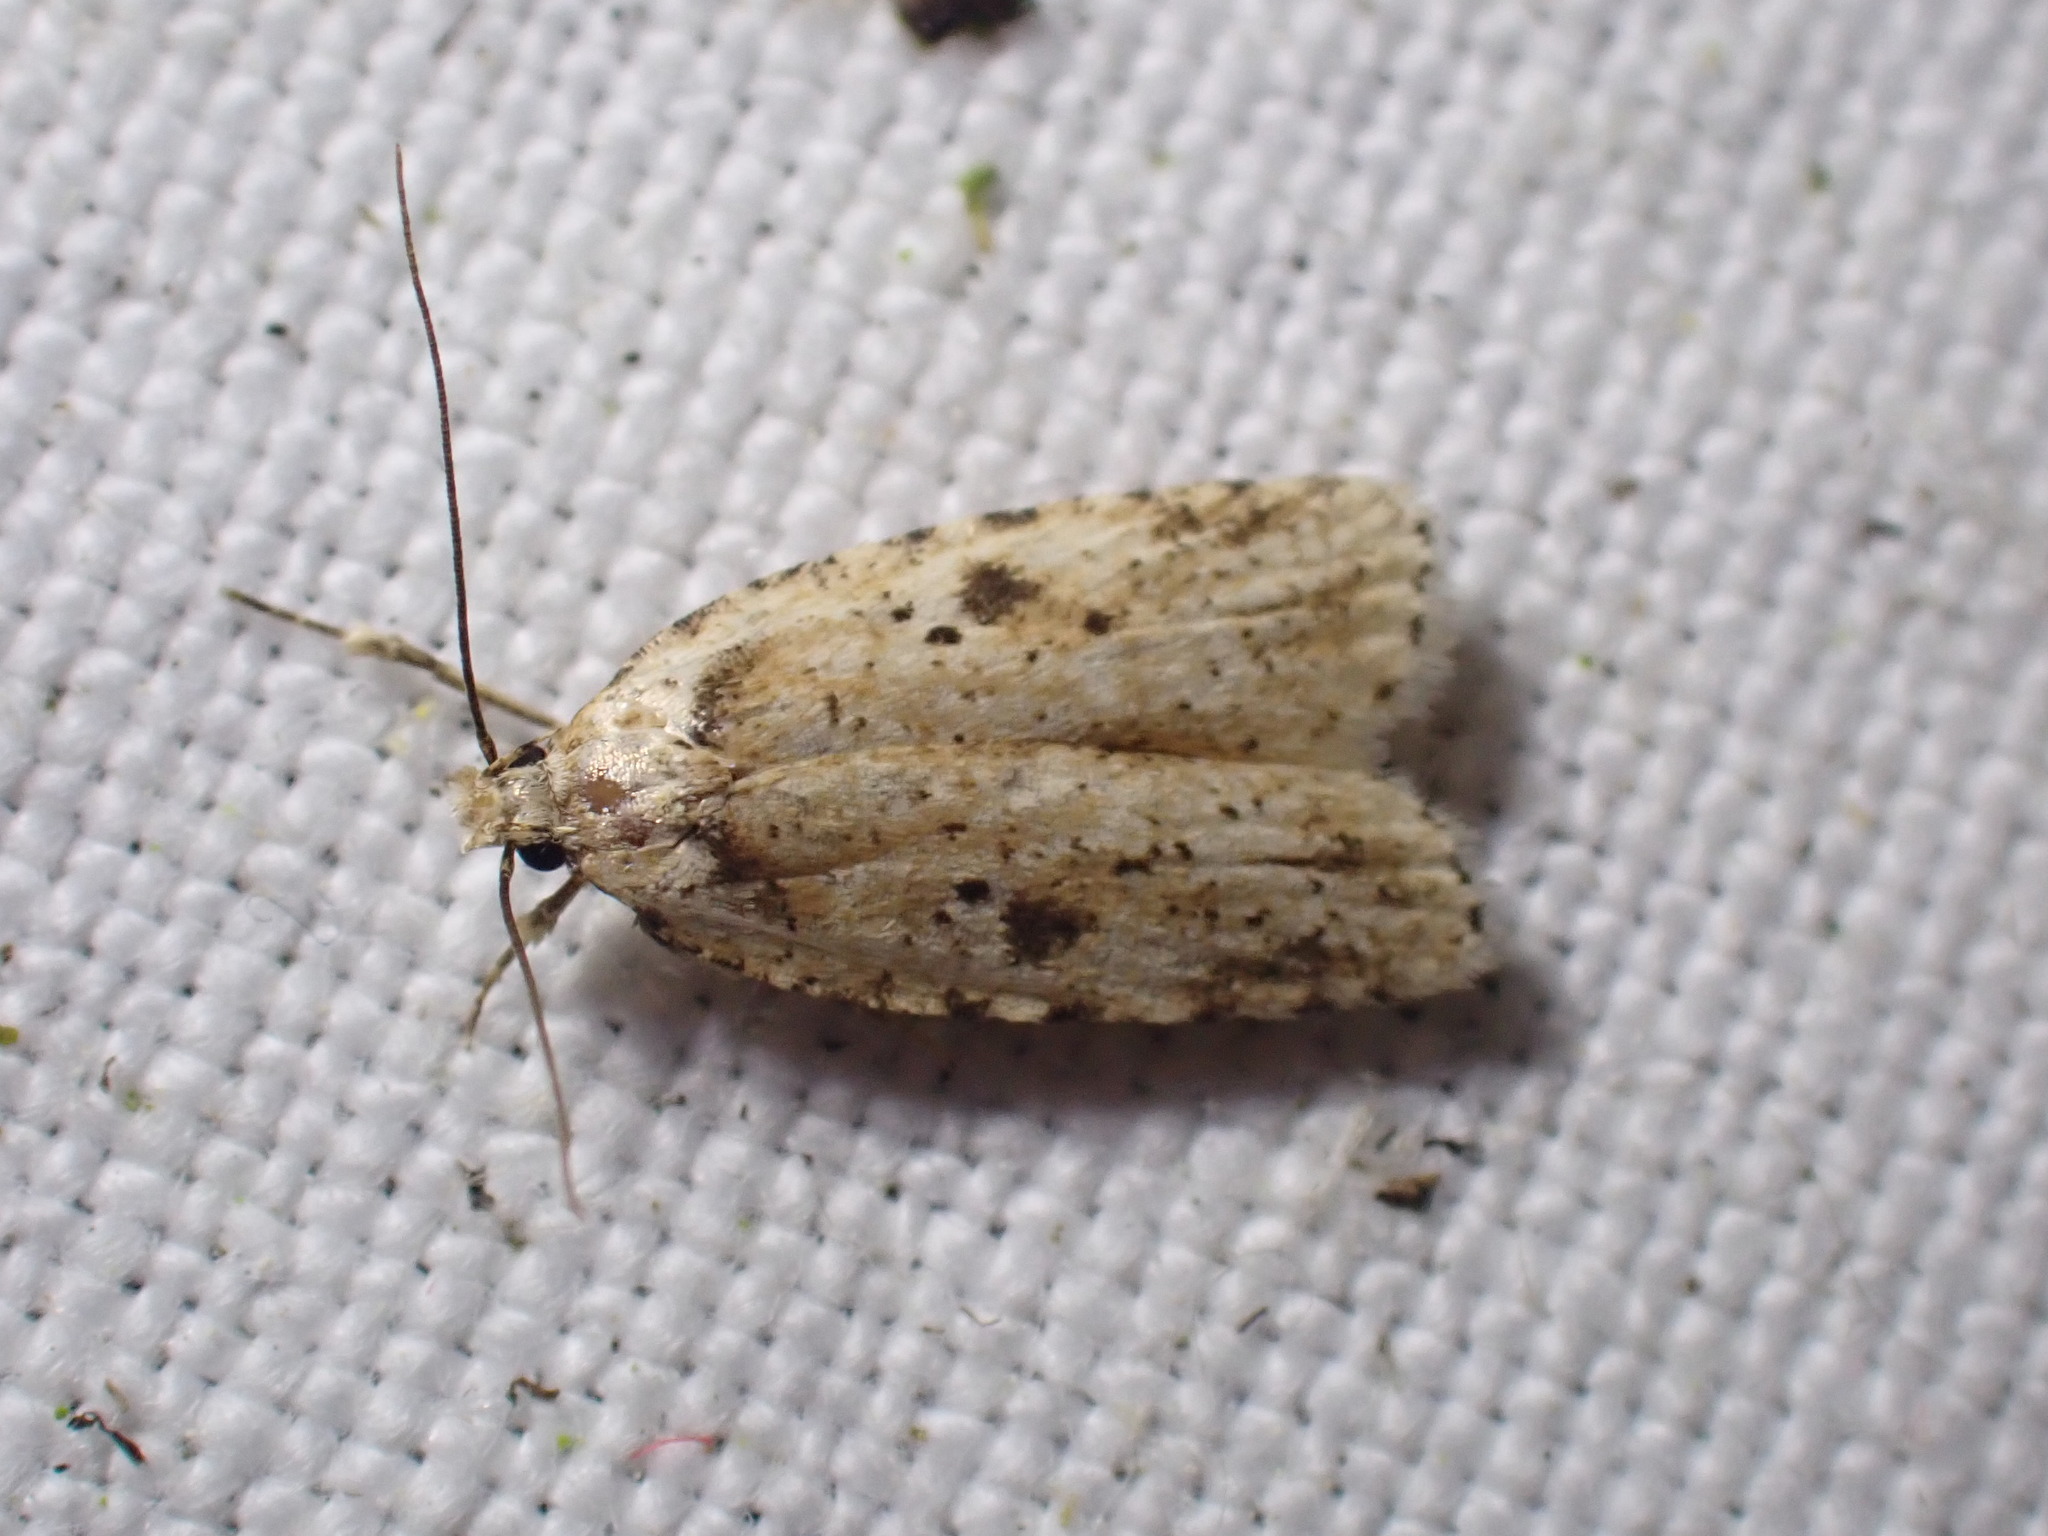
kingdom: Animalia
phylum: Arthropoda
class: Insecta
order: Lepidoptera
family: Depressariidae
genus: Agonopterix
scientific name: Agonopterix arenella
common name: Brindled flat-body
